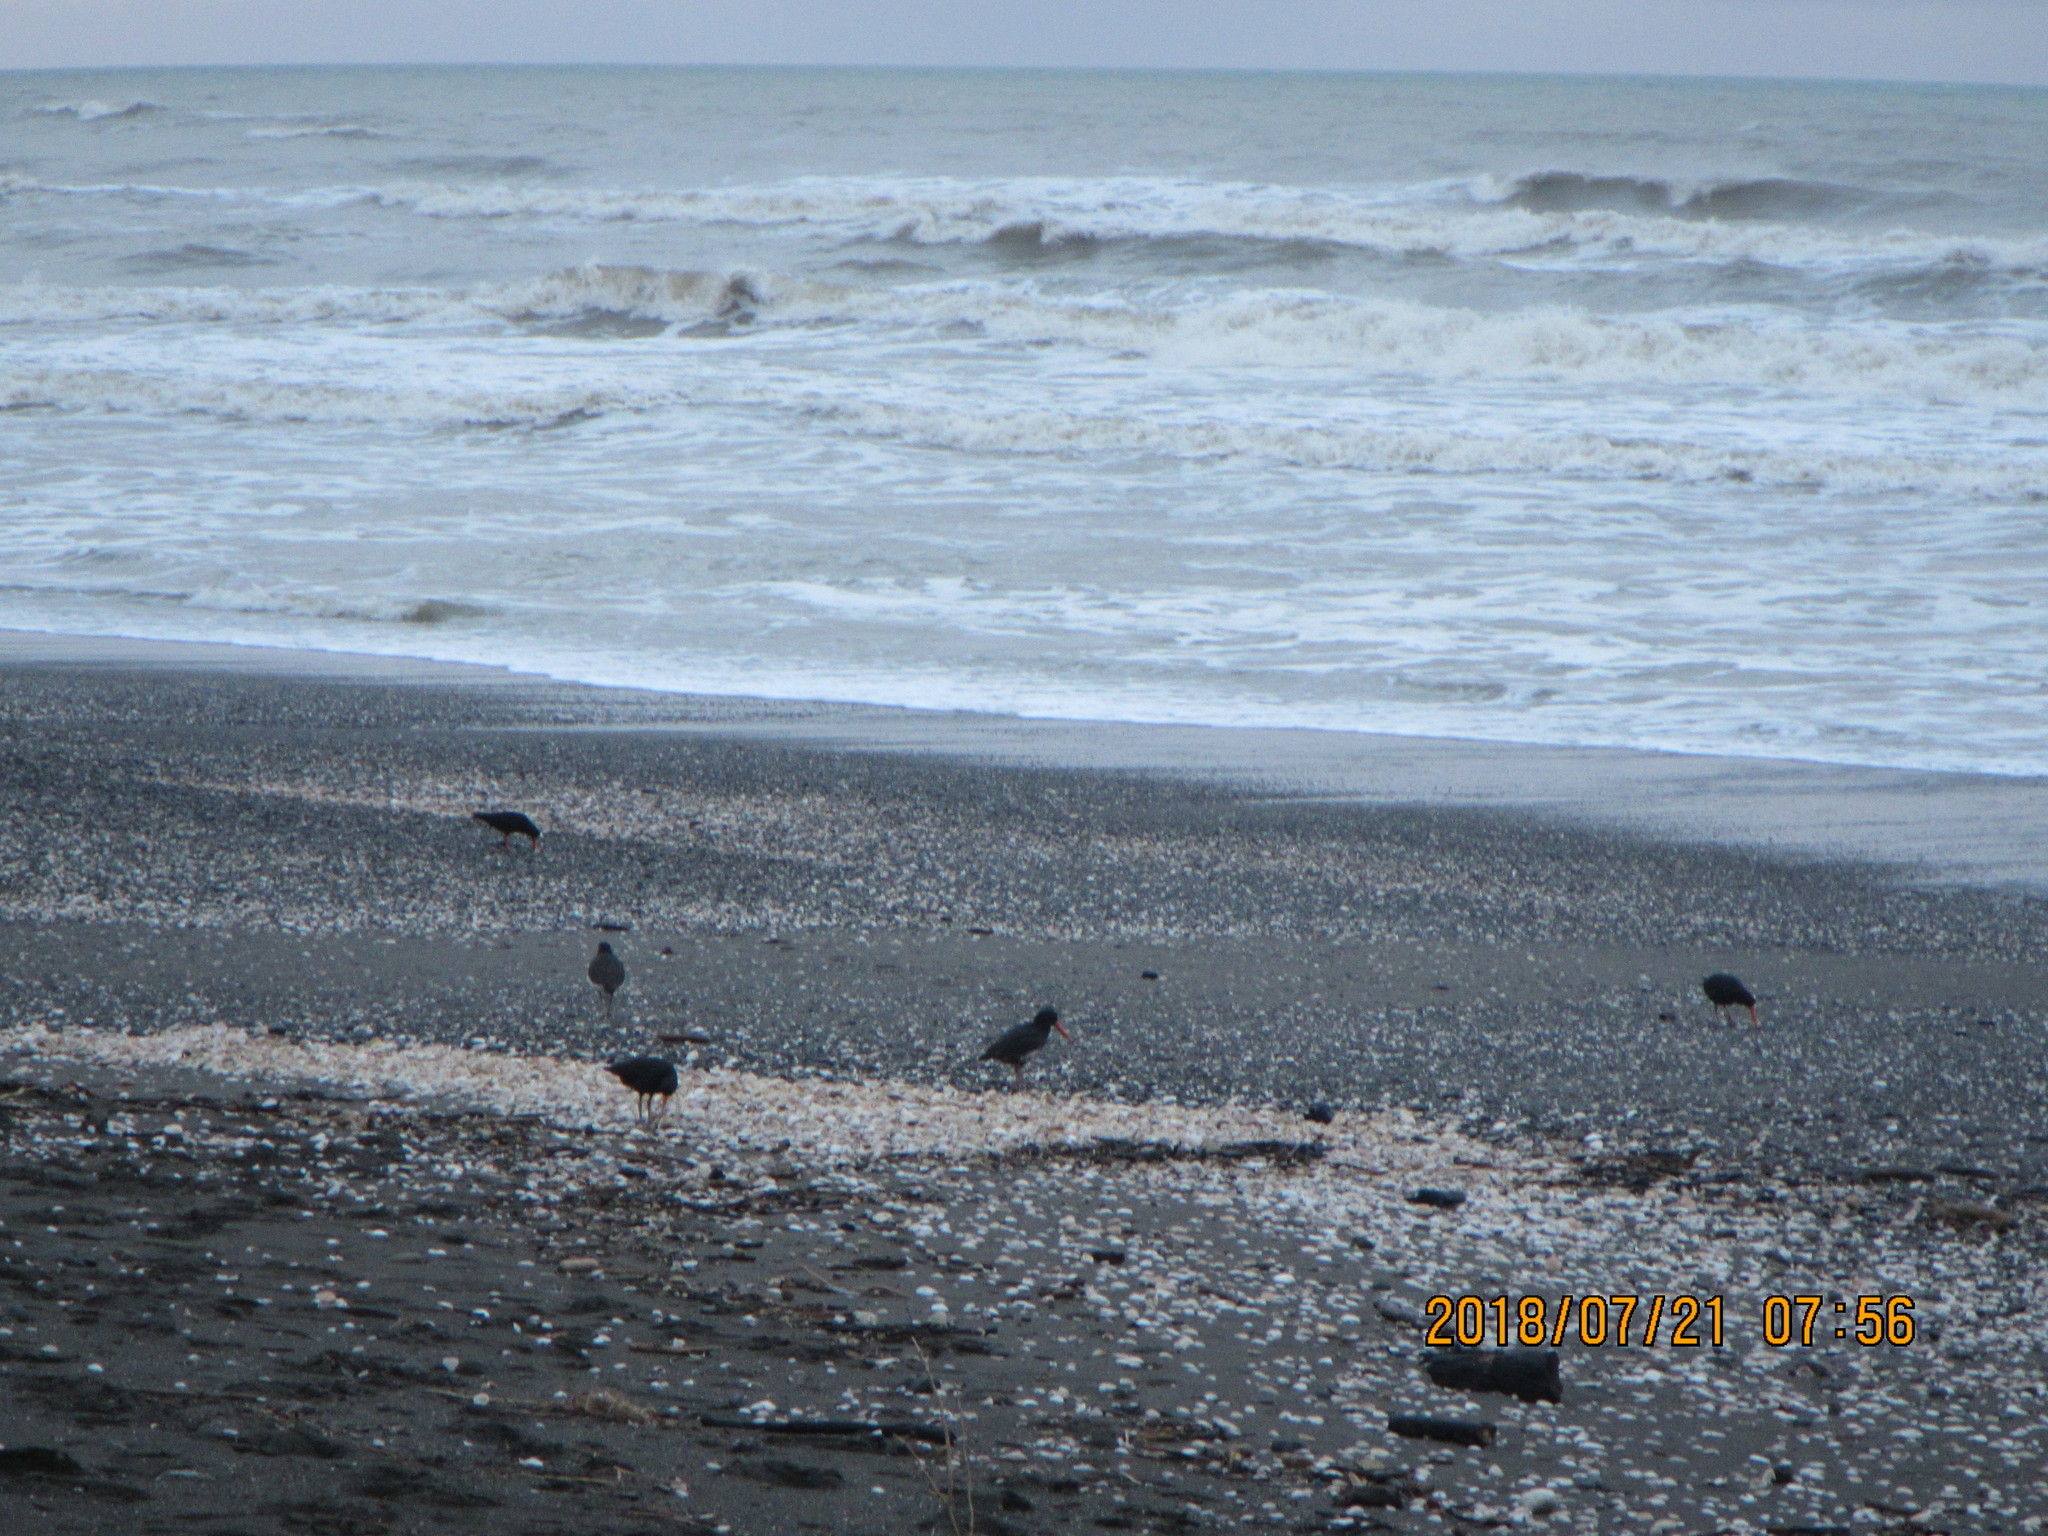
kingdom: Animalia
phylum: Chordata
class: Aves
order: Charadriiformes
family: Haematopodidae
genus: Haematopus
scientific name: Haematopus unicolor
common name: Variable oystercatcher
